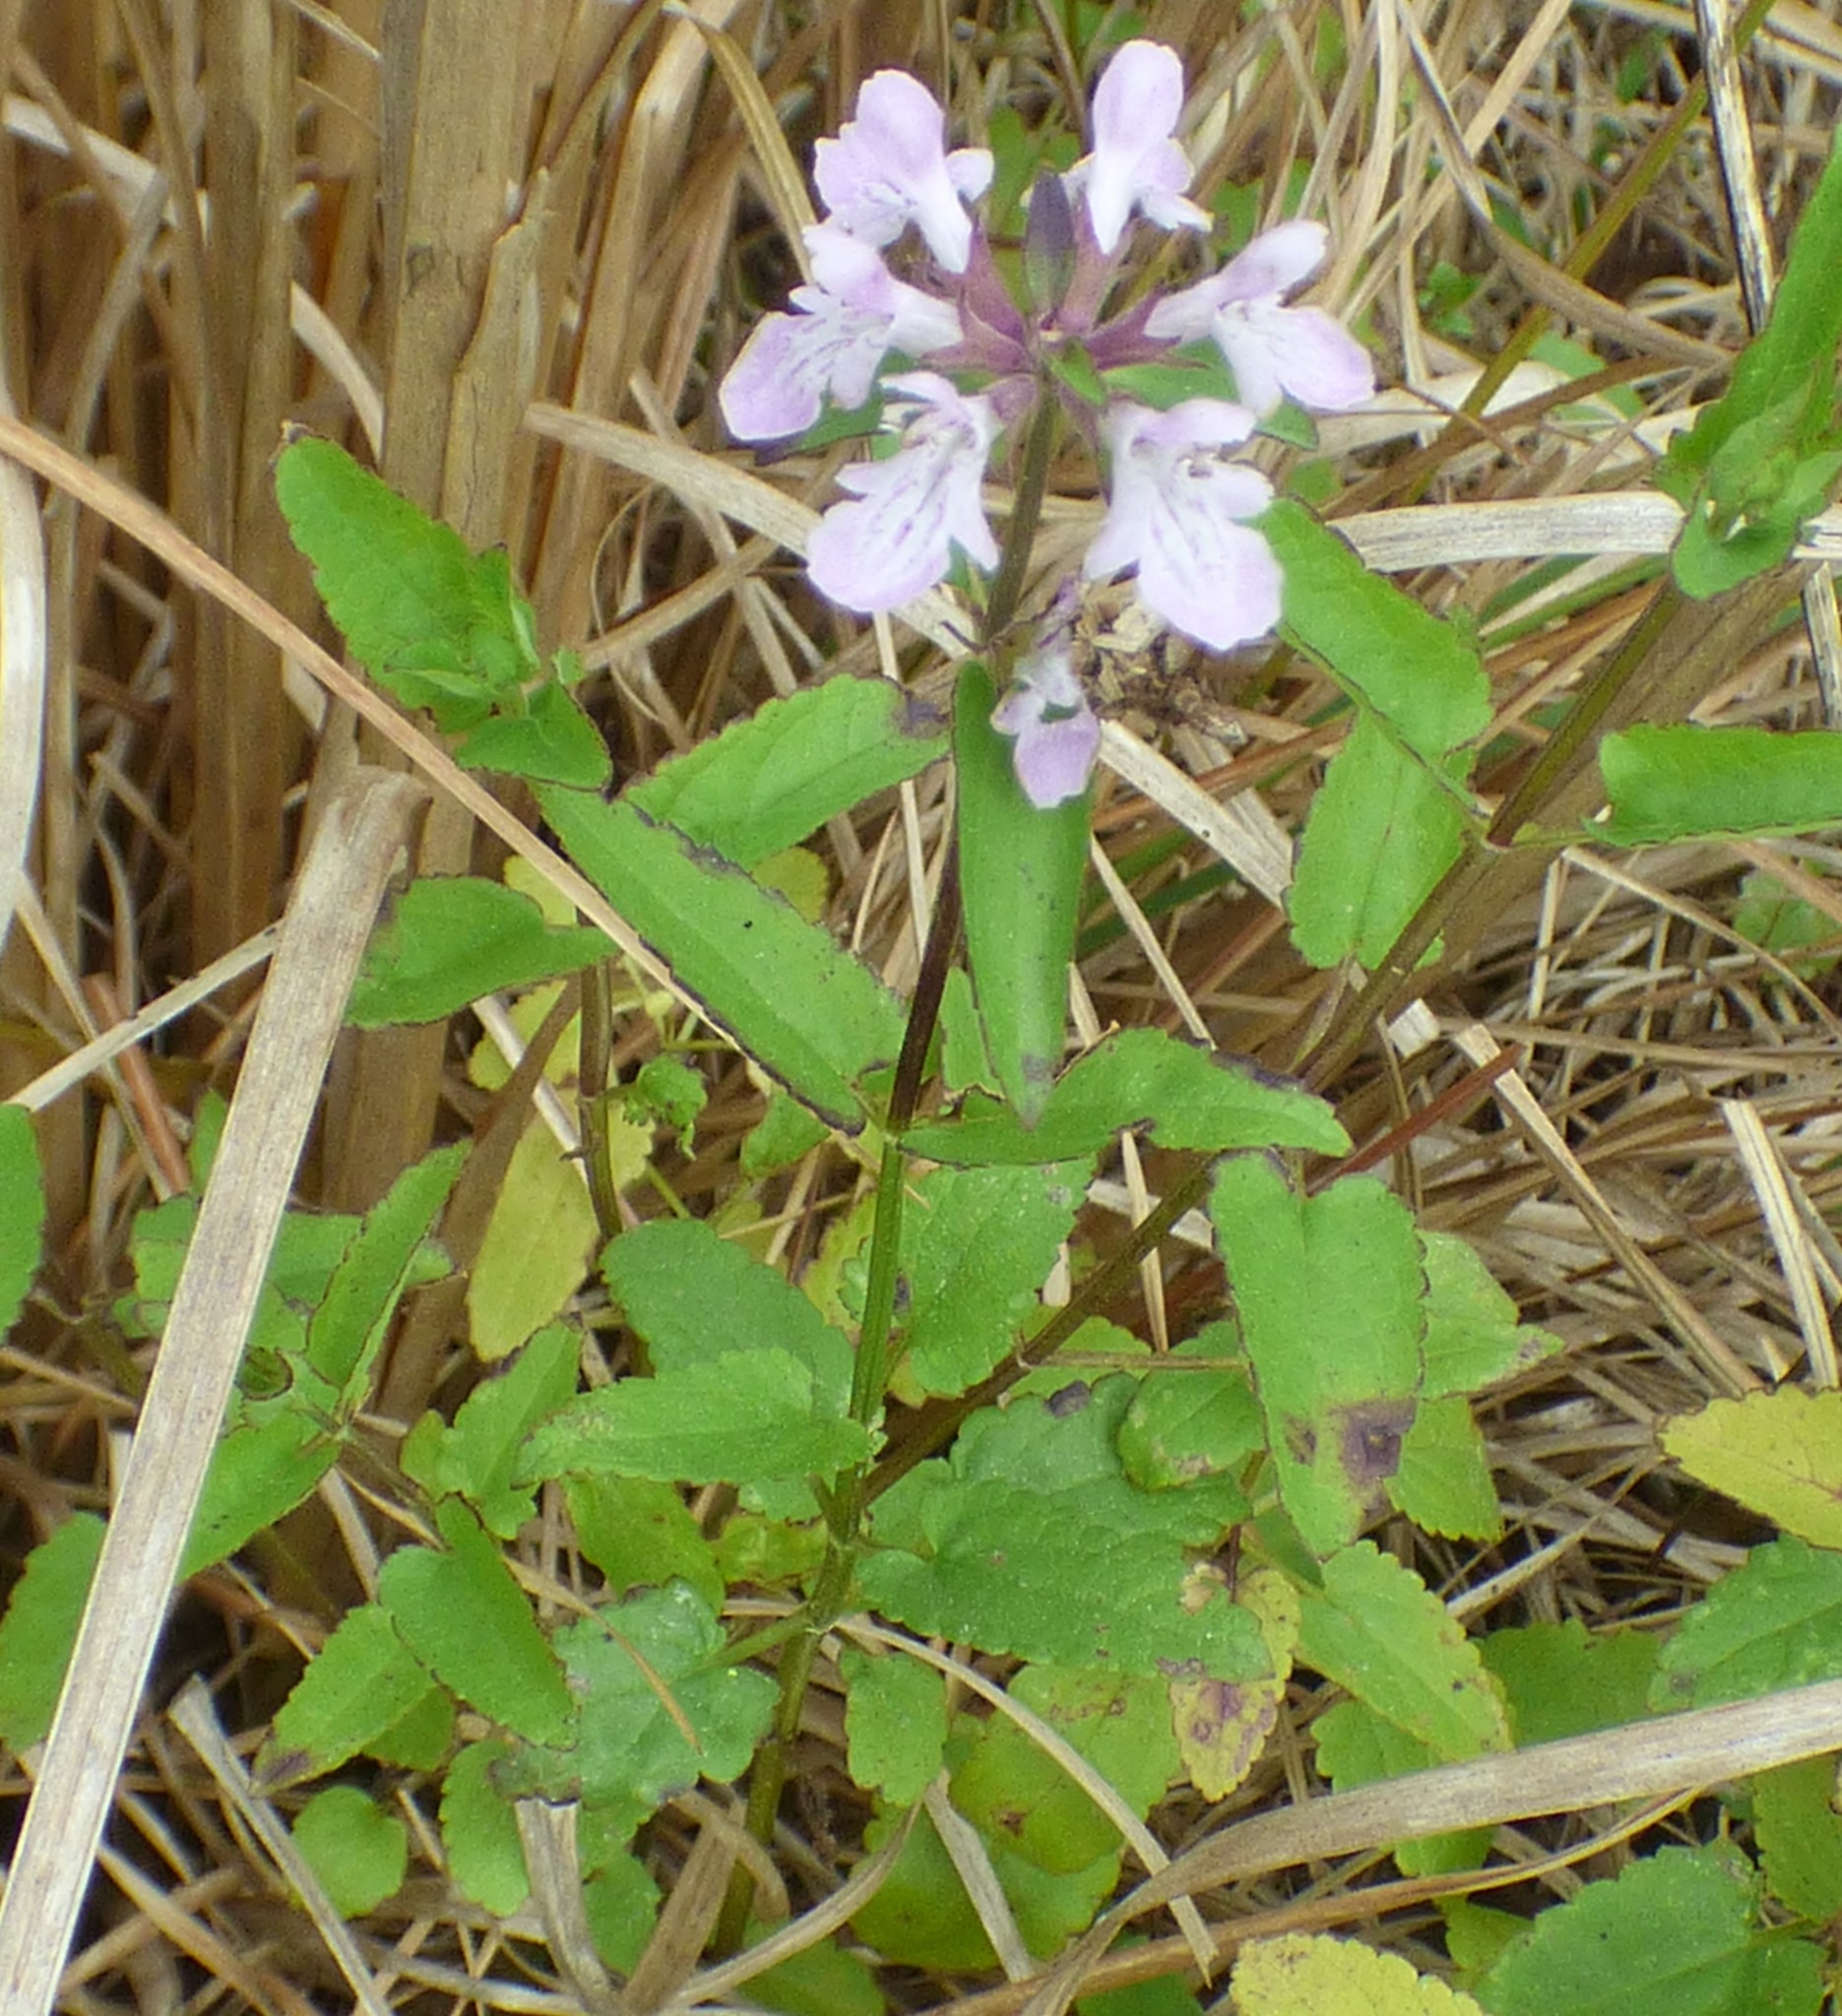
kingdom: Plantae
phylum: Tracheophyta
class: Magnoliopsida
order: Lamiales
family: Lamiaceae
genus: Stachys
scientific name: Stachys floridana
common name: Florida betony
